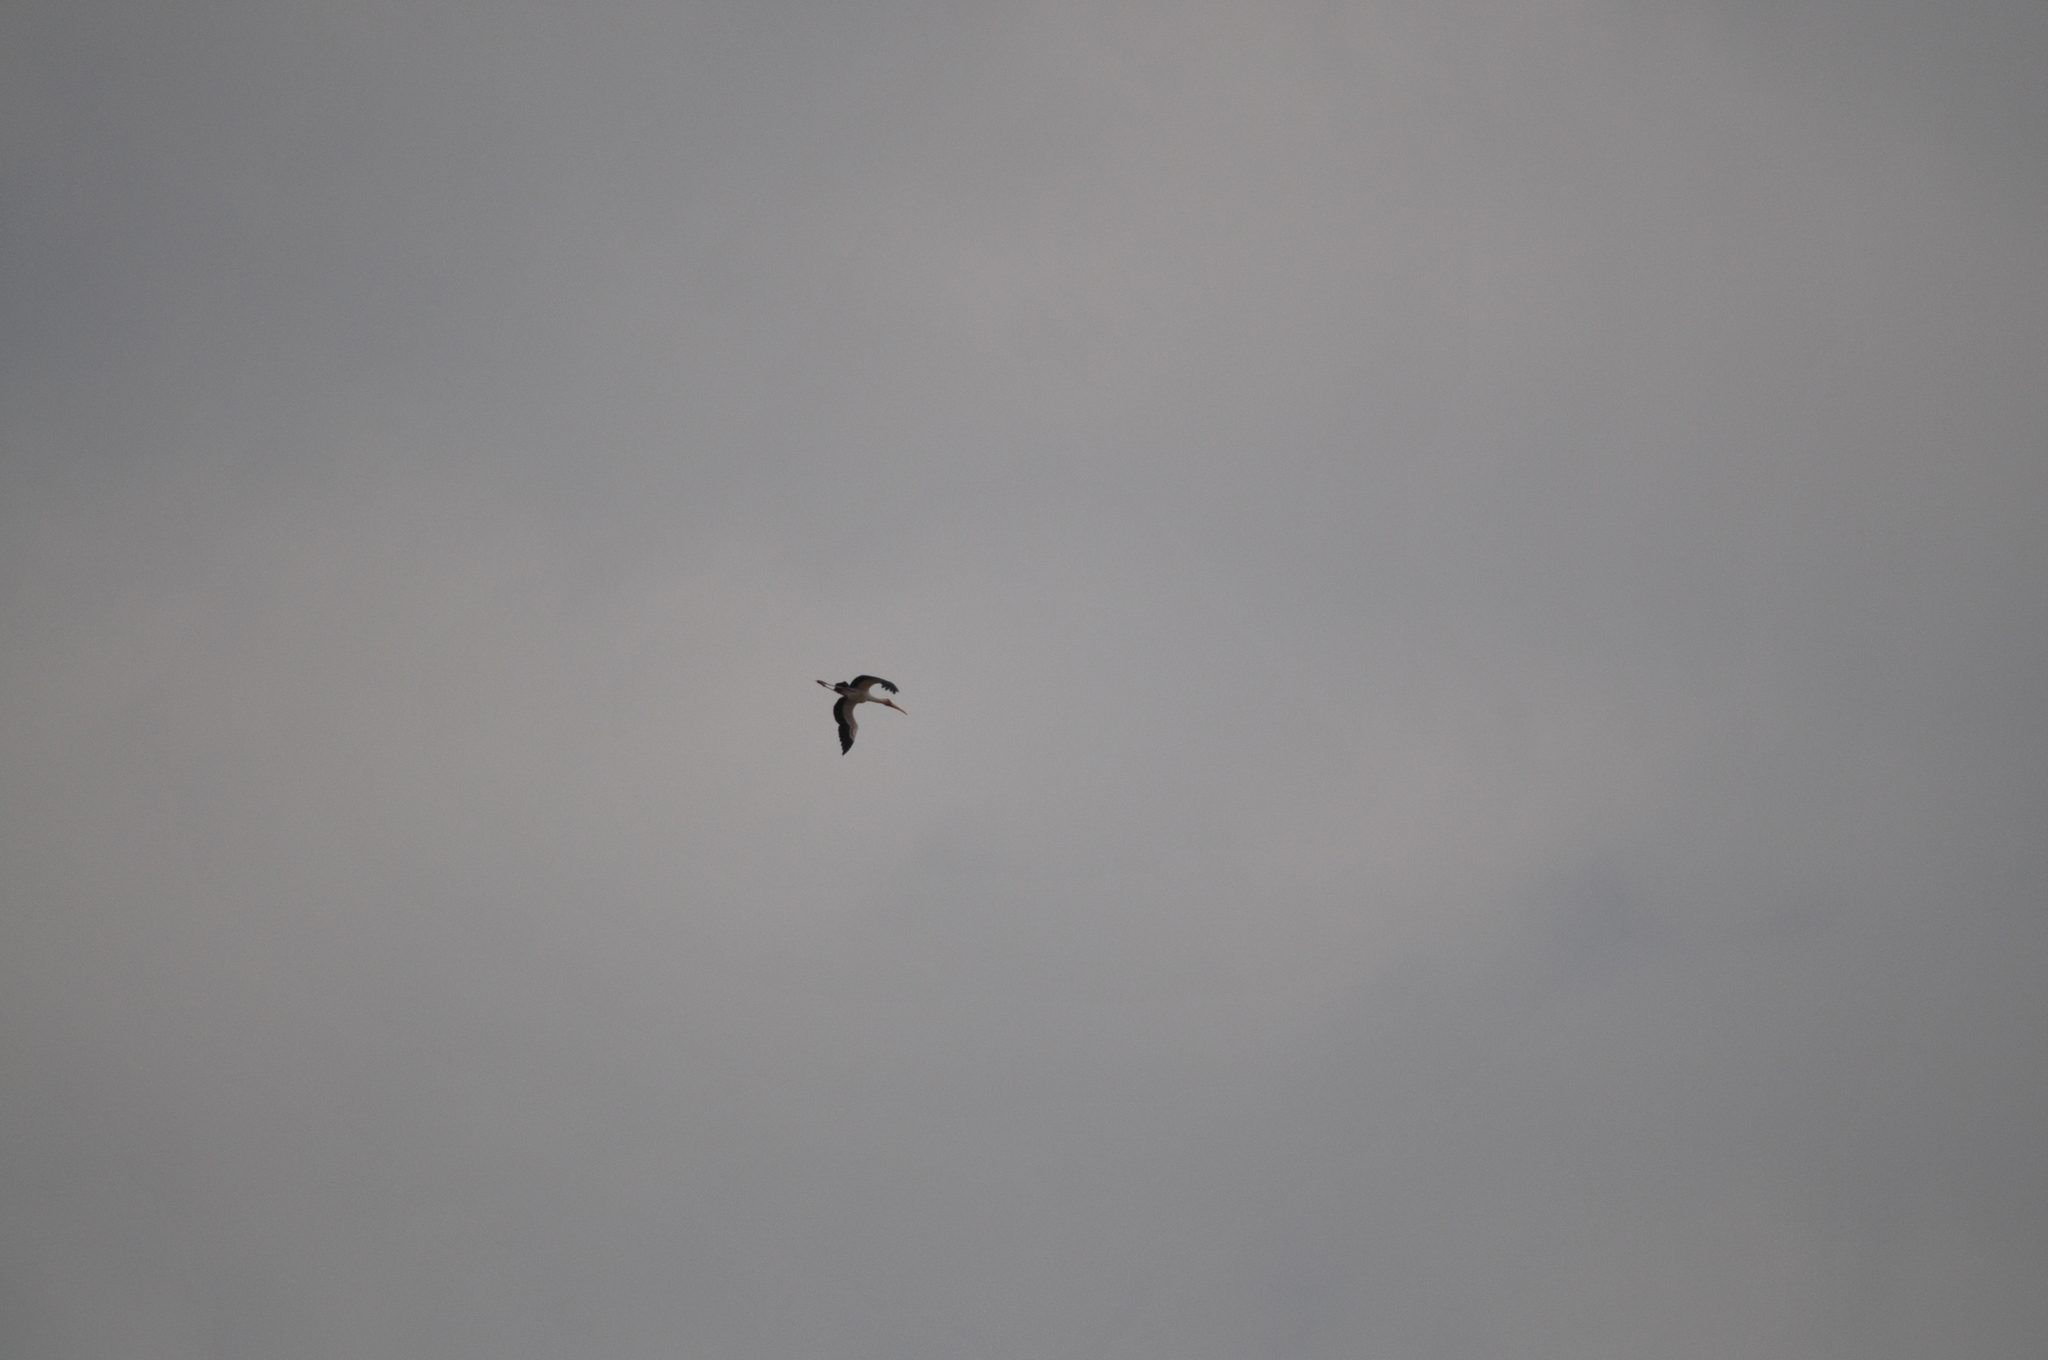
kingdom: Animalia
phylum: Chordata
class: Aves
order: Ciconiiformes
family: Ciconiidae
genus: Mycteria
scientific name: Mycteria ibis
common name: Yellow-billed stork
